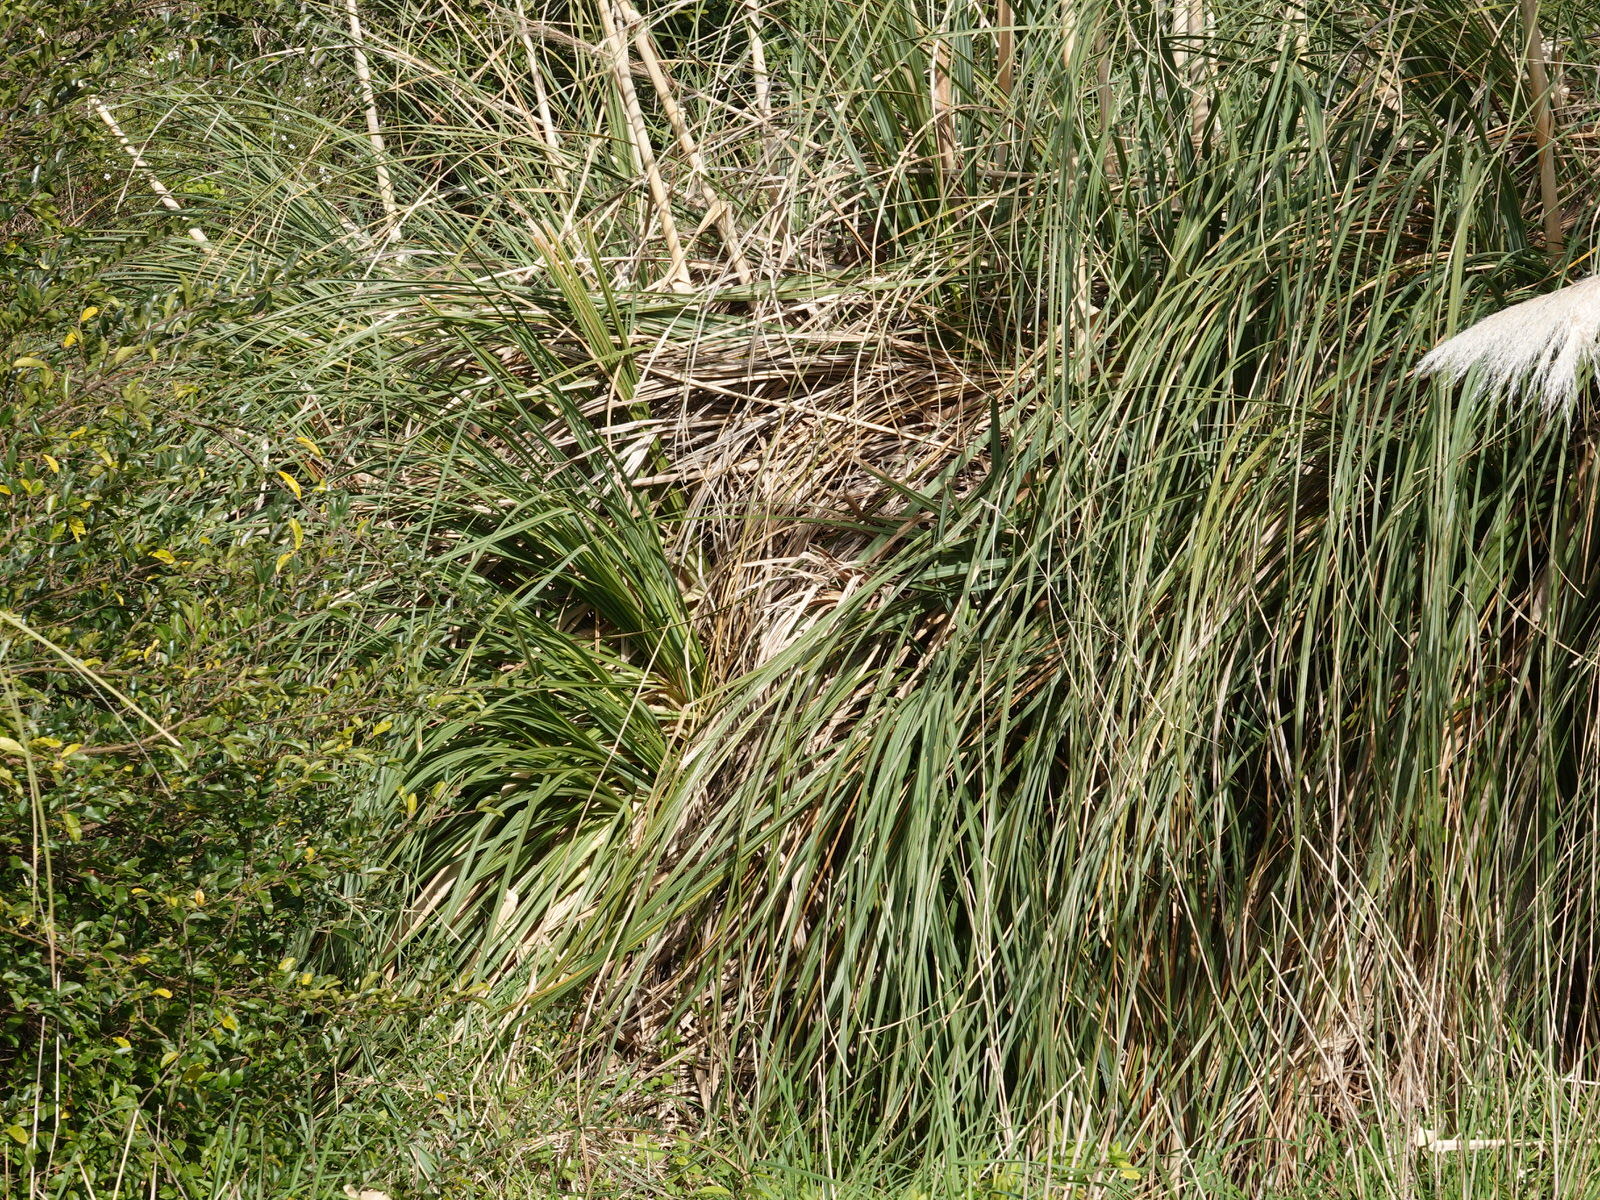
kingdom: Plantae
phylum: Tracheophyta
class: Liliopsida
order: Poales
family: Poaceae
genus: Cortaderia
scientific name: Cortaderia selloana
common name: Uruguayan pampas grass
